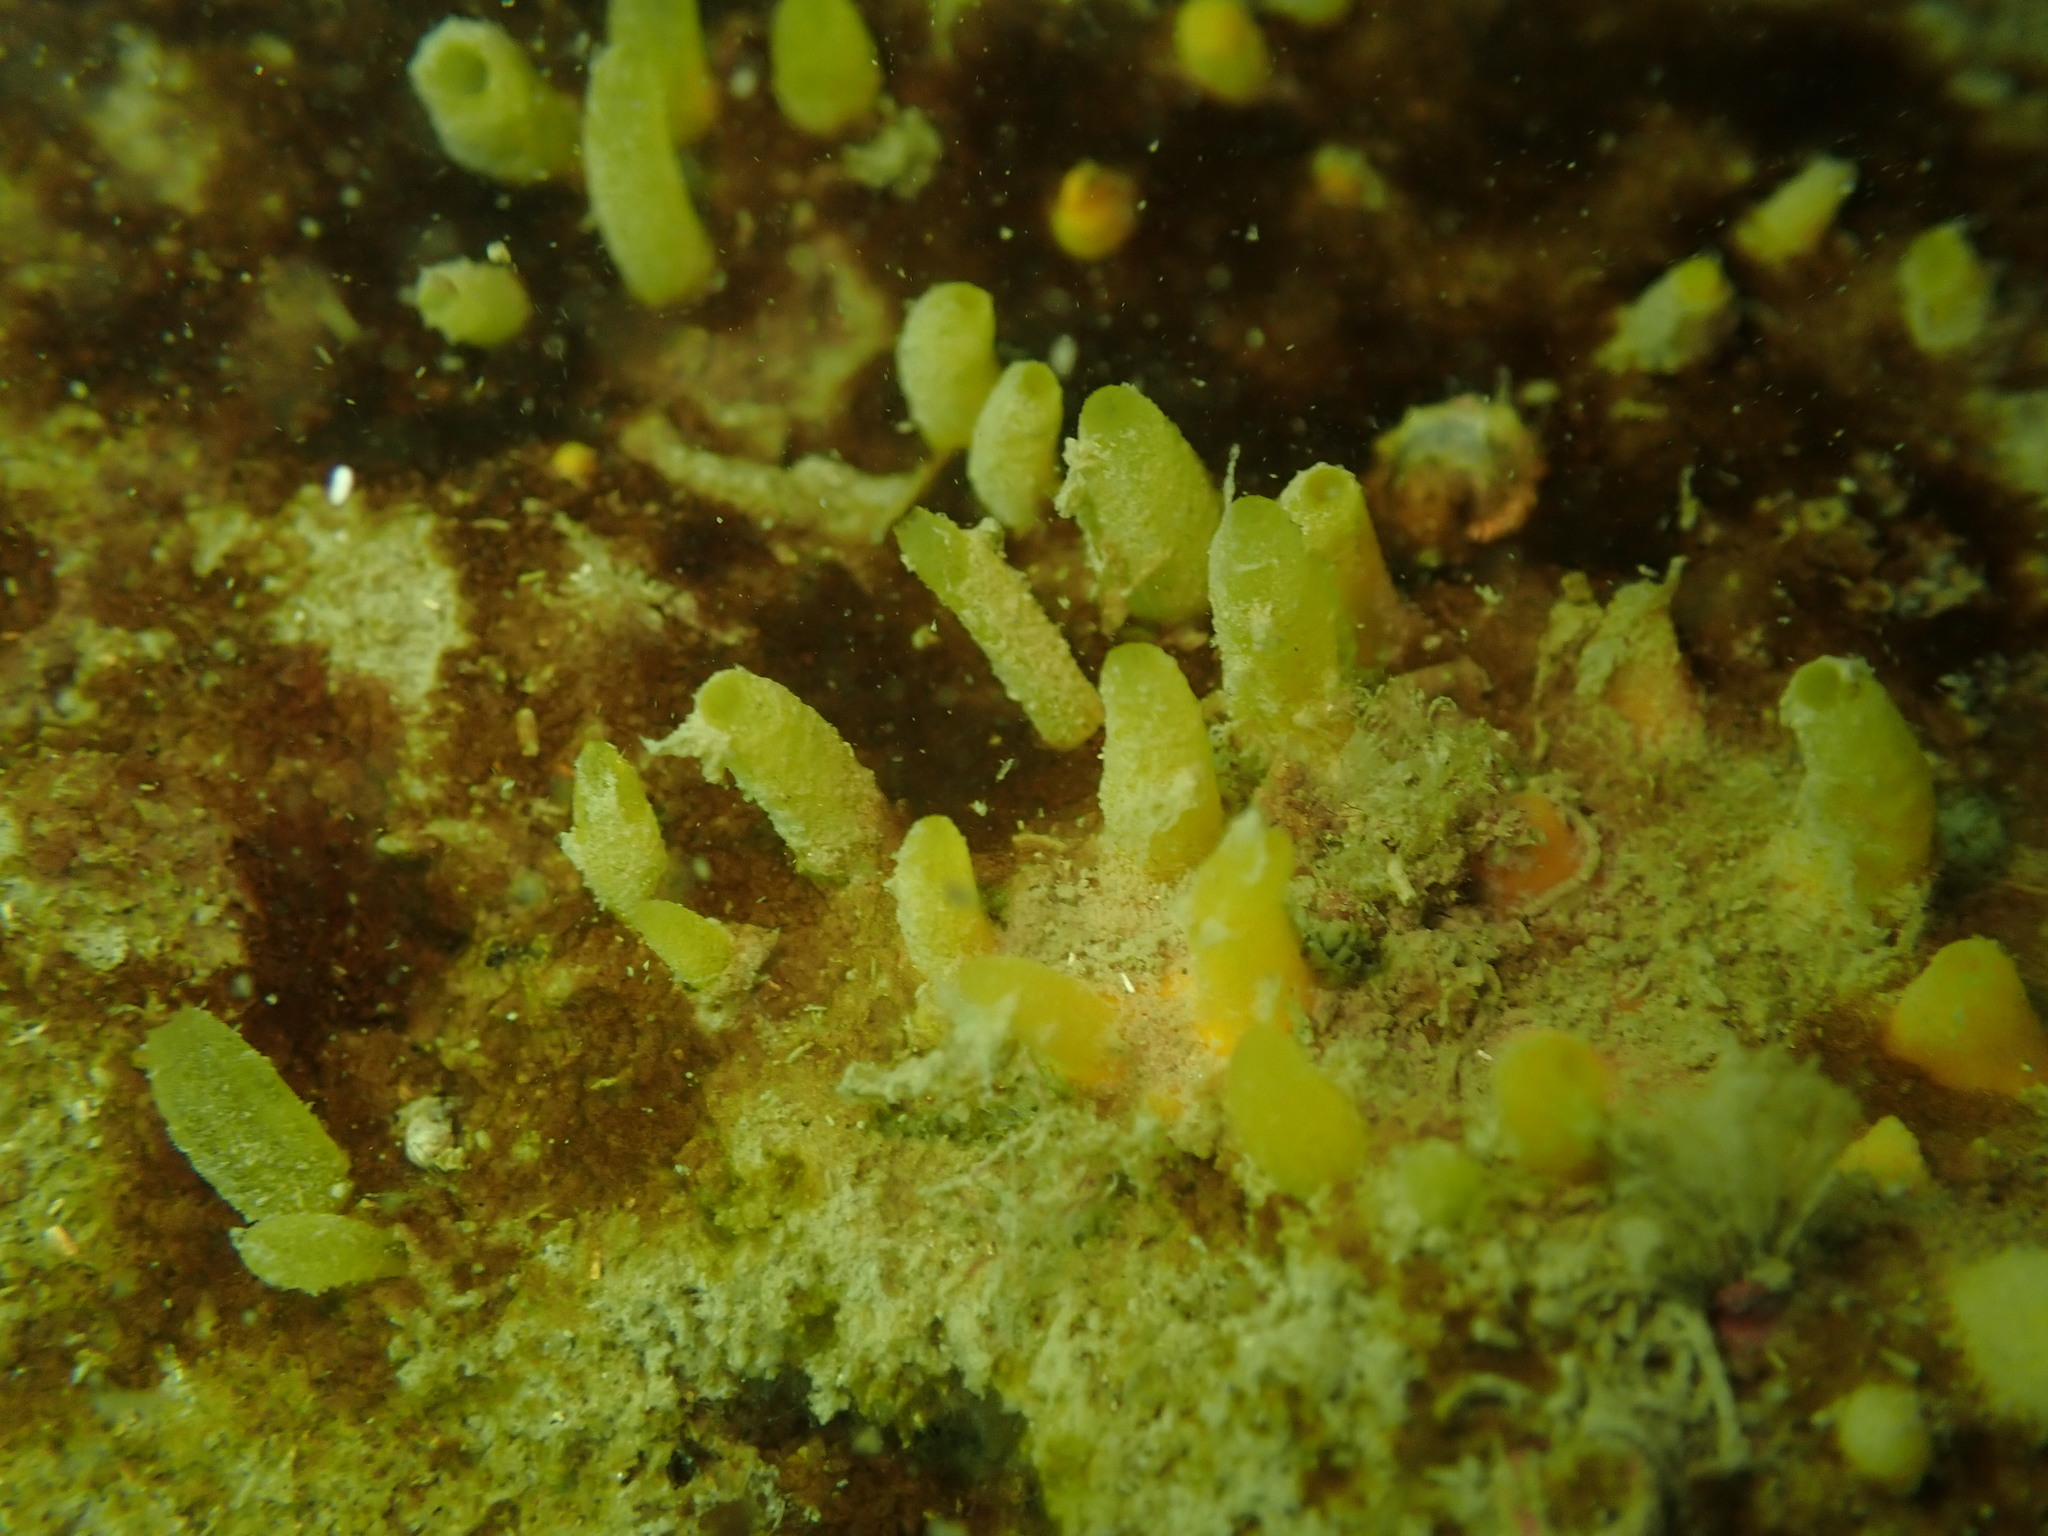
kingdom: Animalia
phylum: Porifera
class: Demospongiae
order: Suberitida
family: Halichondriidae
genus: Ciocalypta
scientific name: Ciocalypta polymastia
